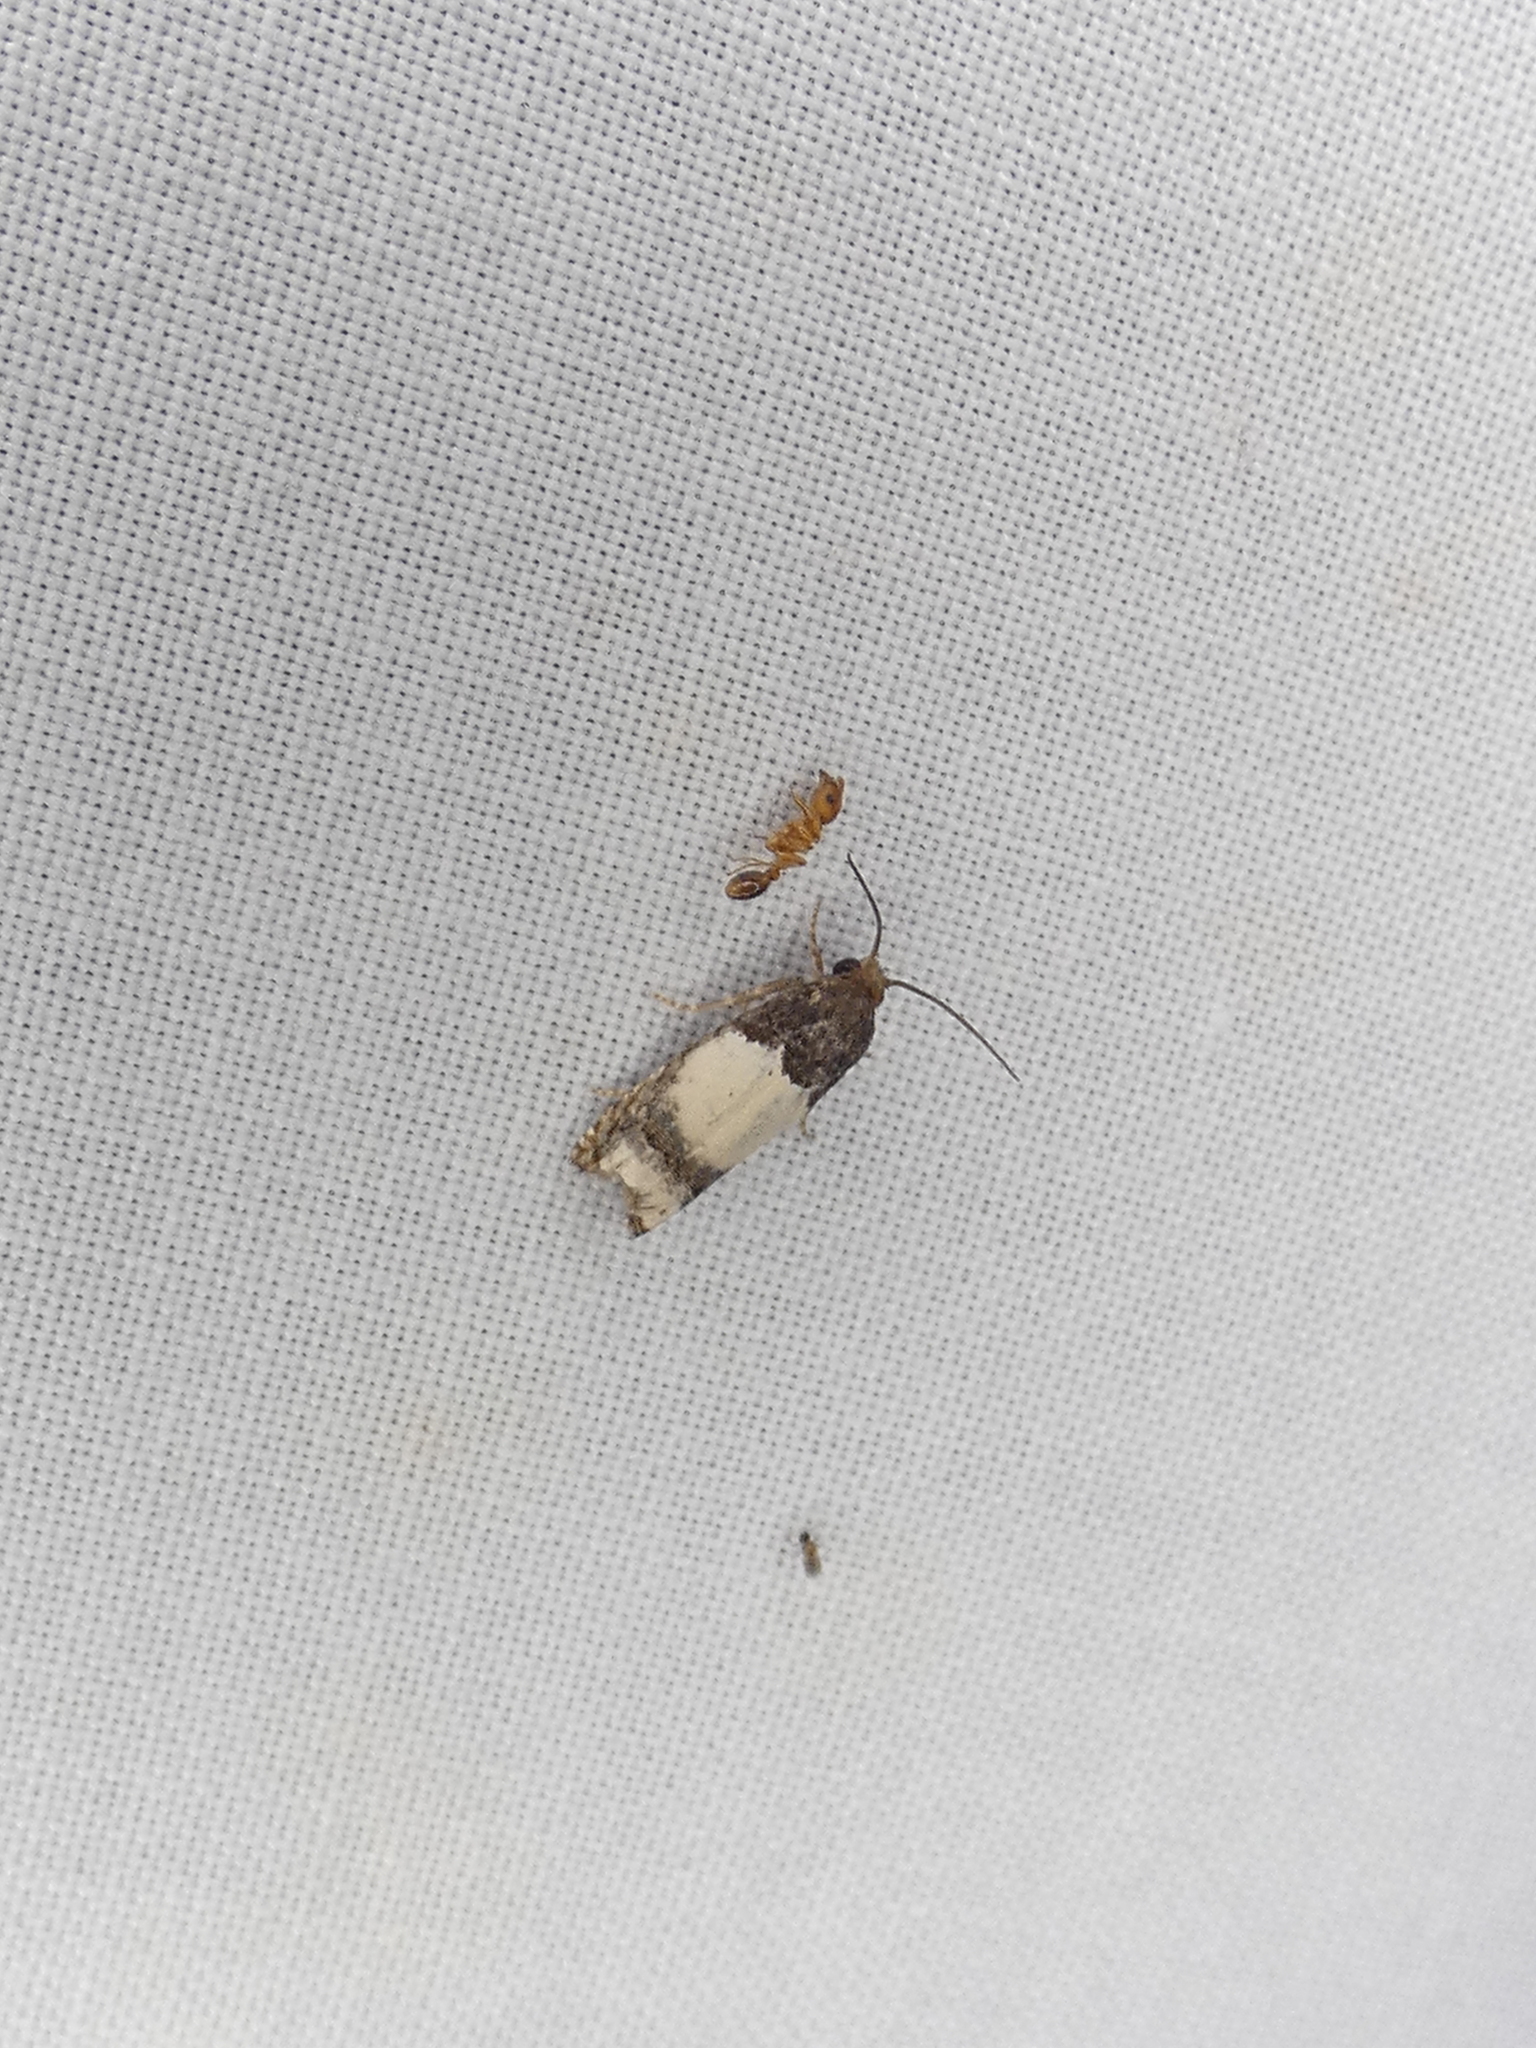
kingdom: Animalia
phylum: Arthropoda
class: Insecta
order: Lepidoptera
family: Tortricidae
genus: Epiblema
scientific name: Epiblema scudderiana
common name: Goldenrod gall moth
